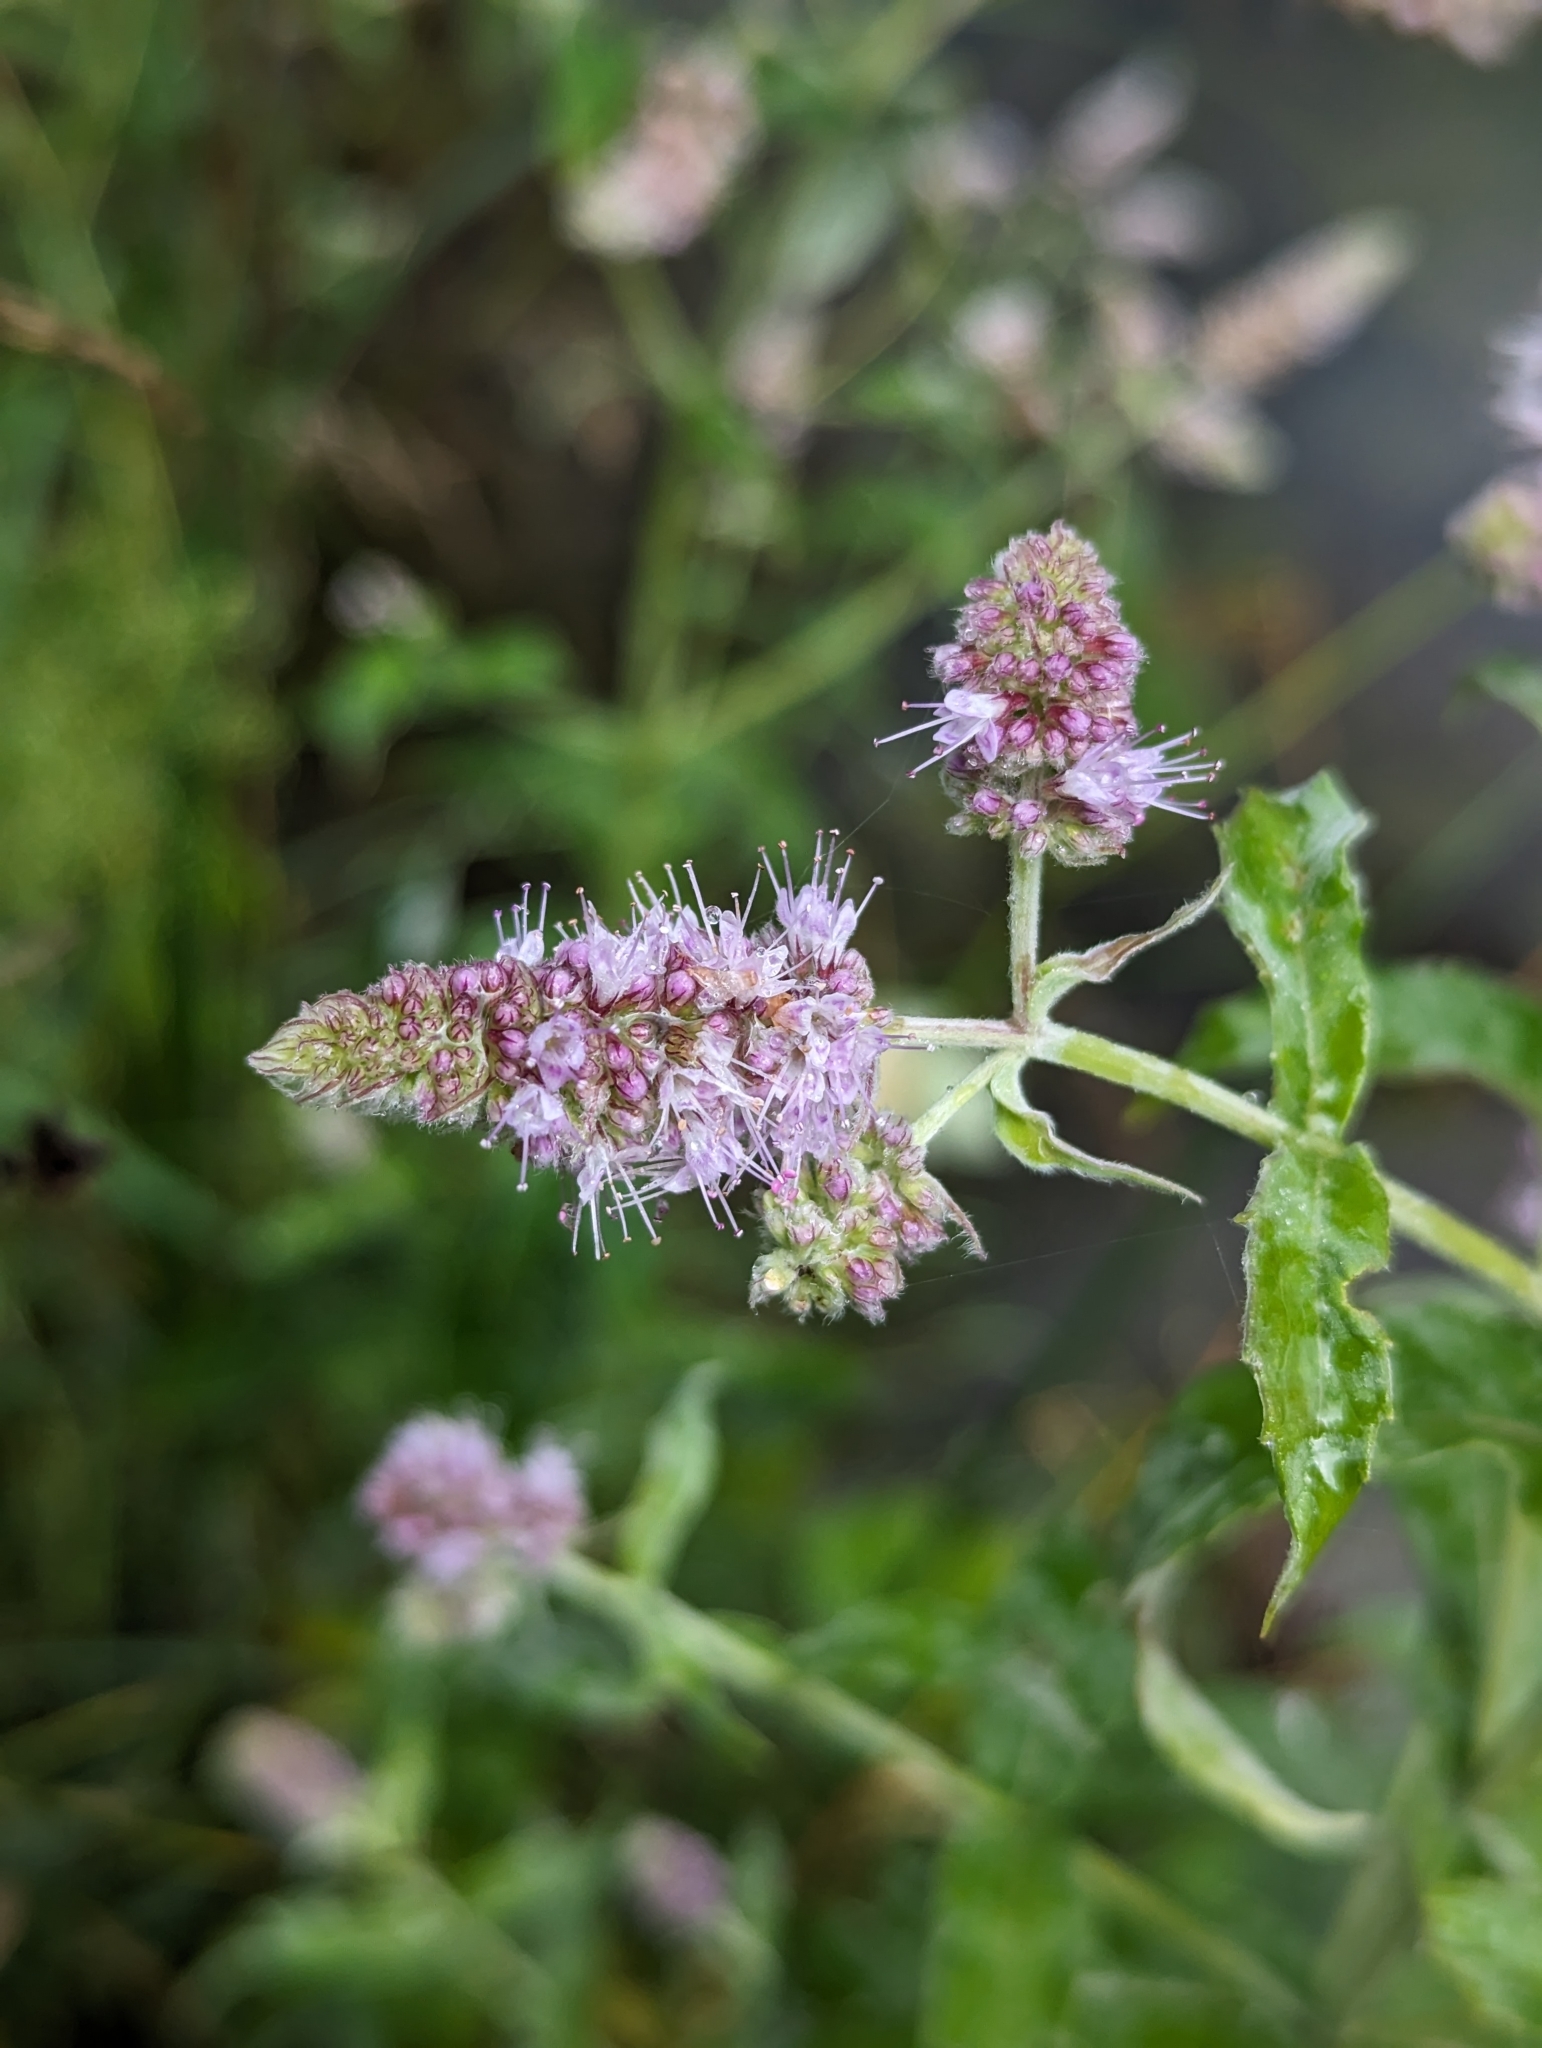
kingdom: Plantae
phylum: Tracheophyta
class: Magnoliopsida
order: Lamiales
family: Lamiaceae
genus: Mentha
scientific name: Mentha longifolia
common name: Horse mint
